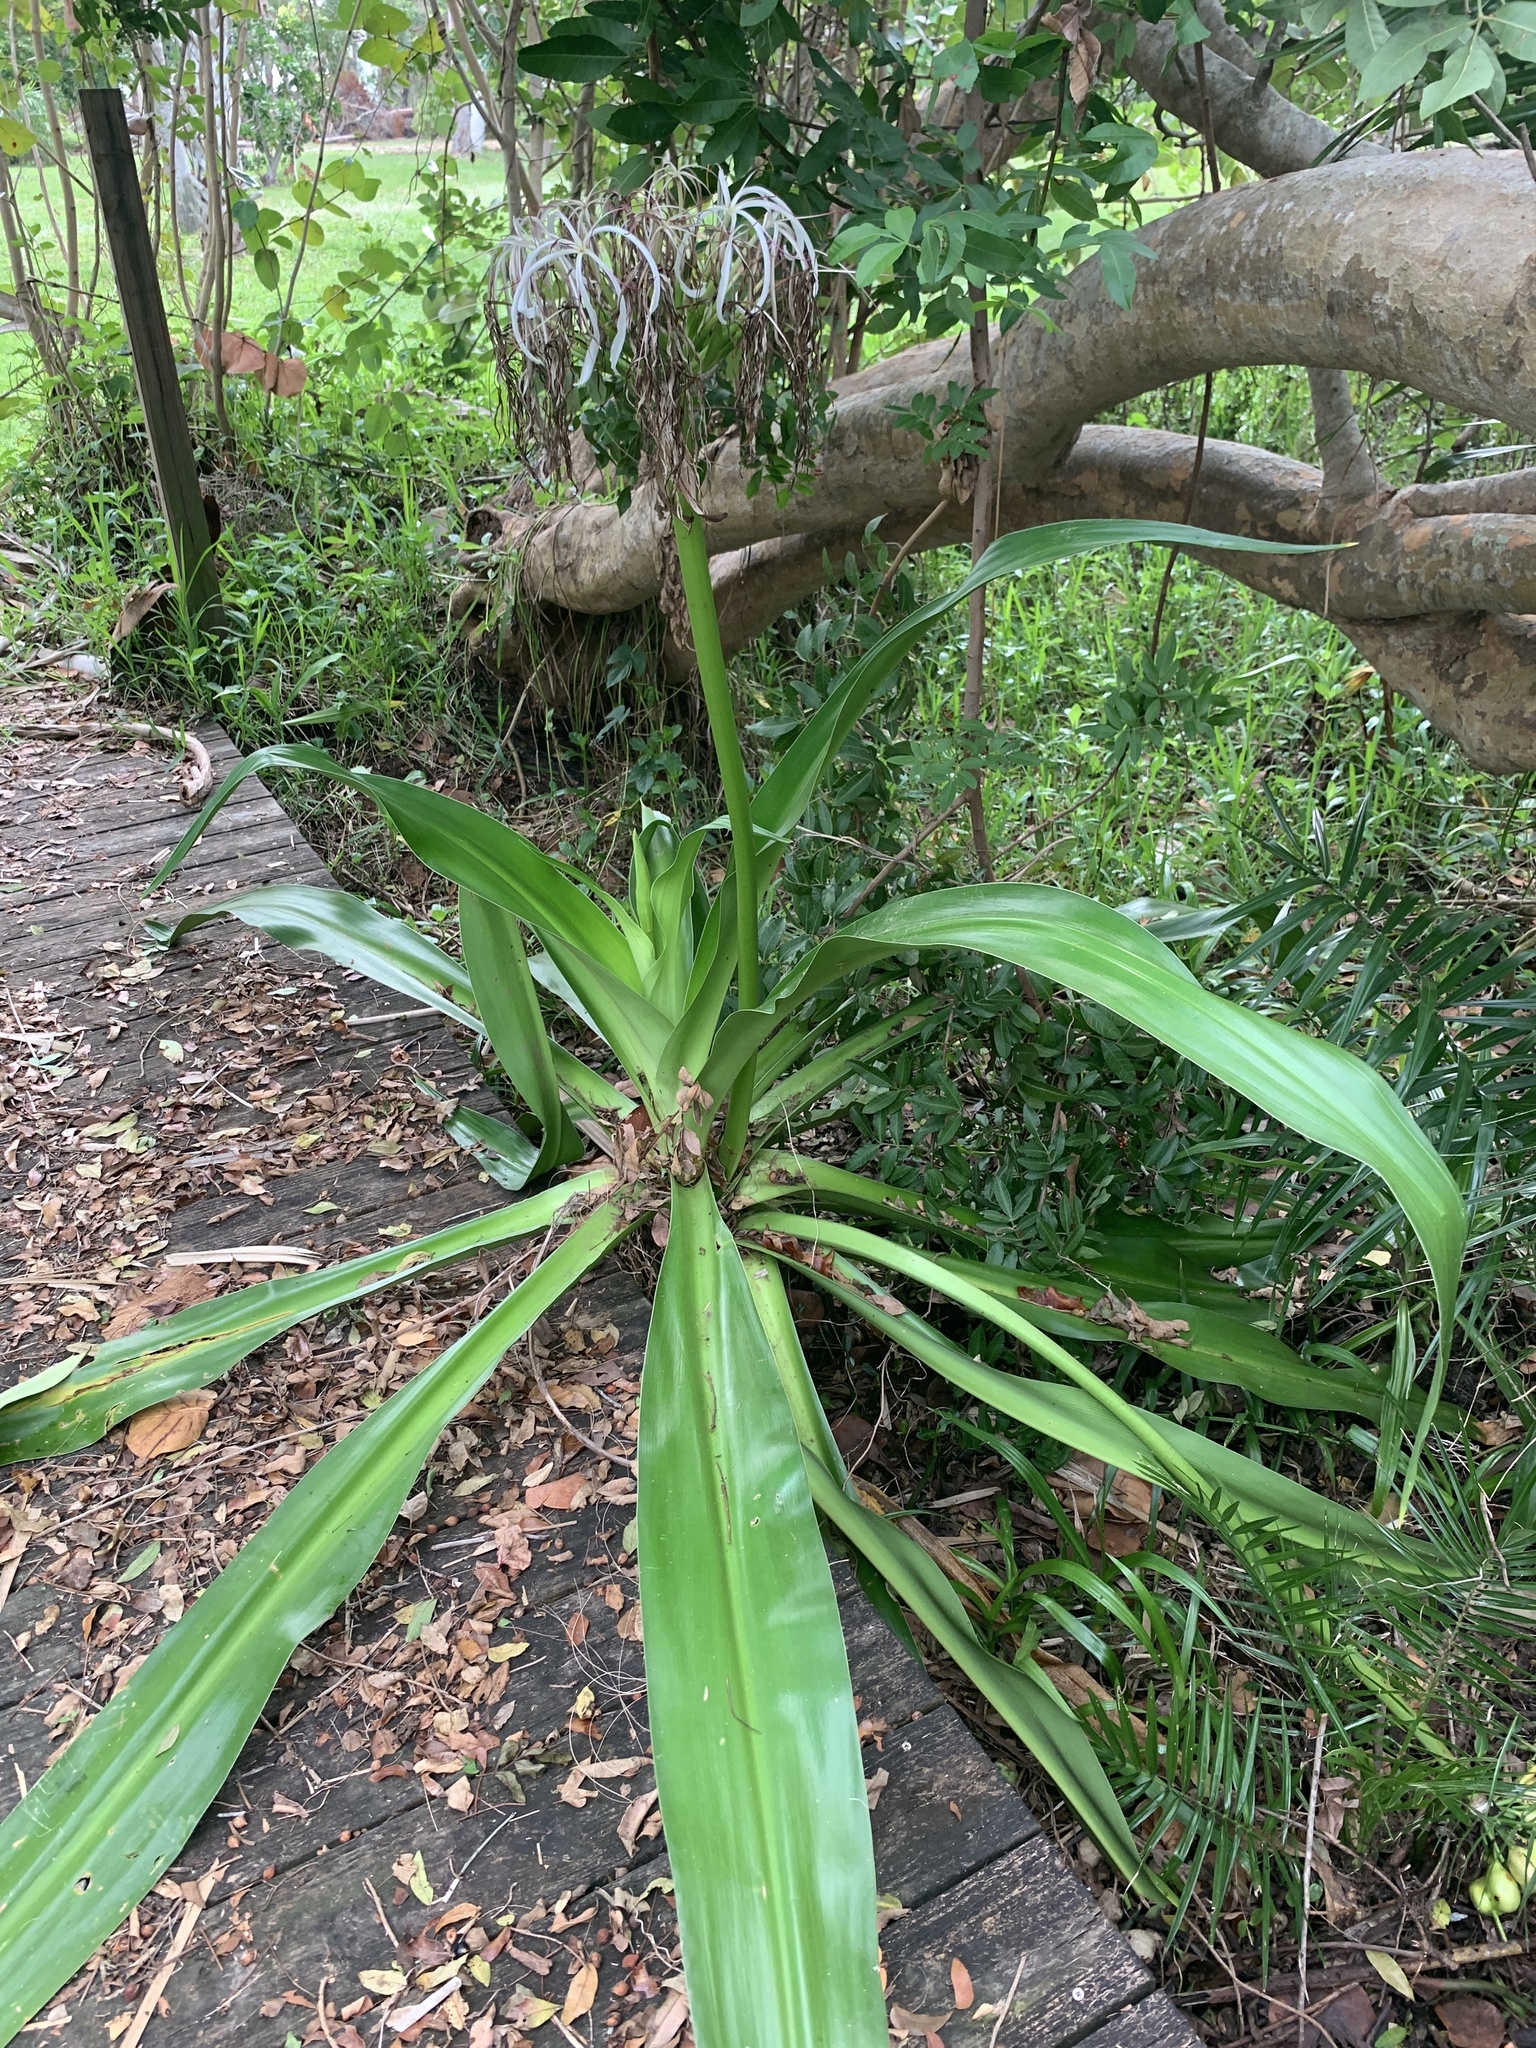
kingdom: Plantae
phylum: Tracheophyta
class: Liliopsida
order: Asparagales
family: Amaryllidaceae
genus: Crinum
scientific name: Crinum asiaticum
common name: Poisonbulb
